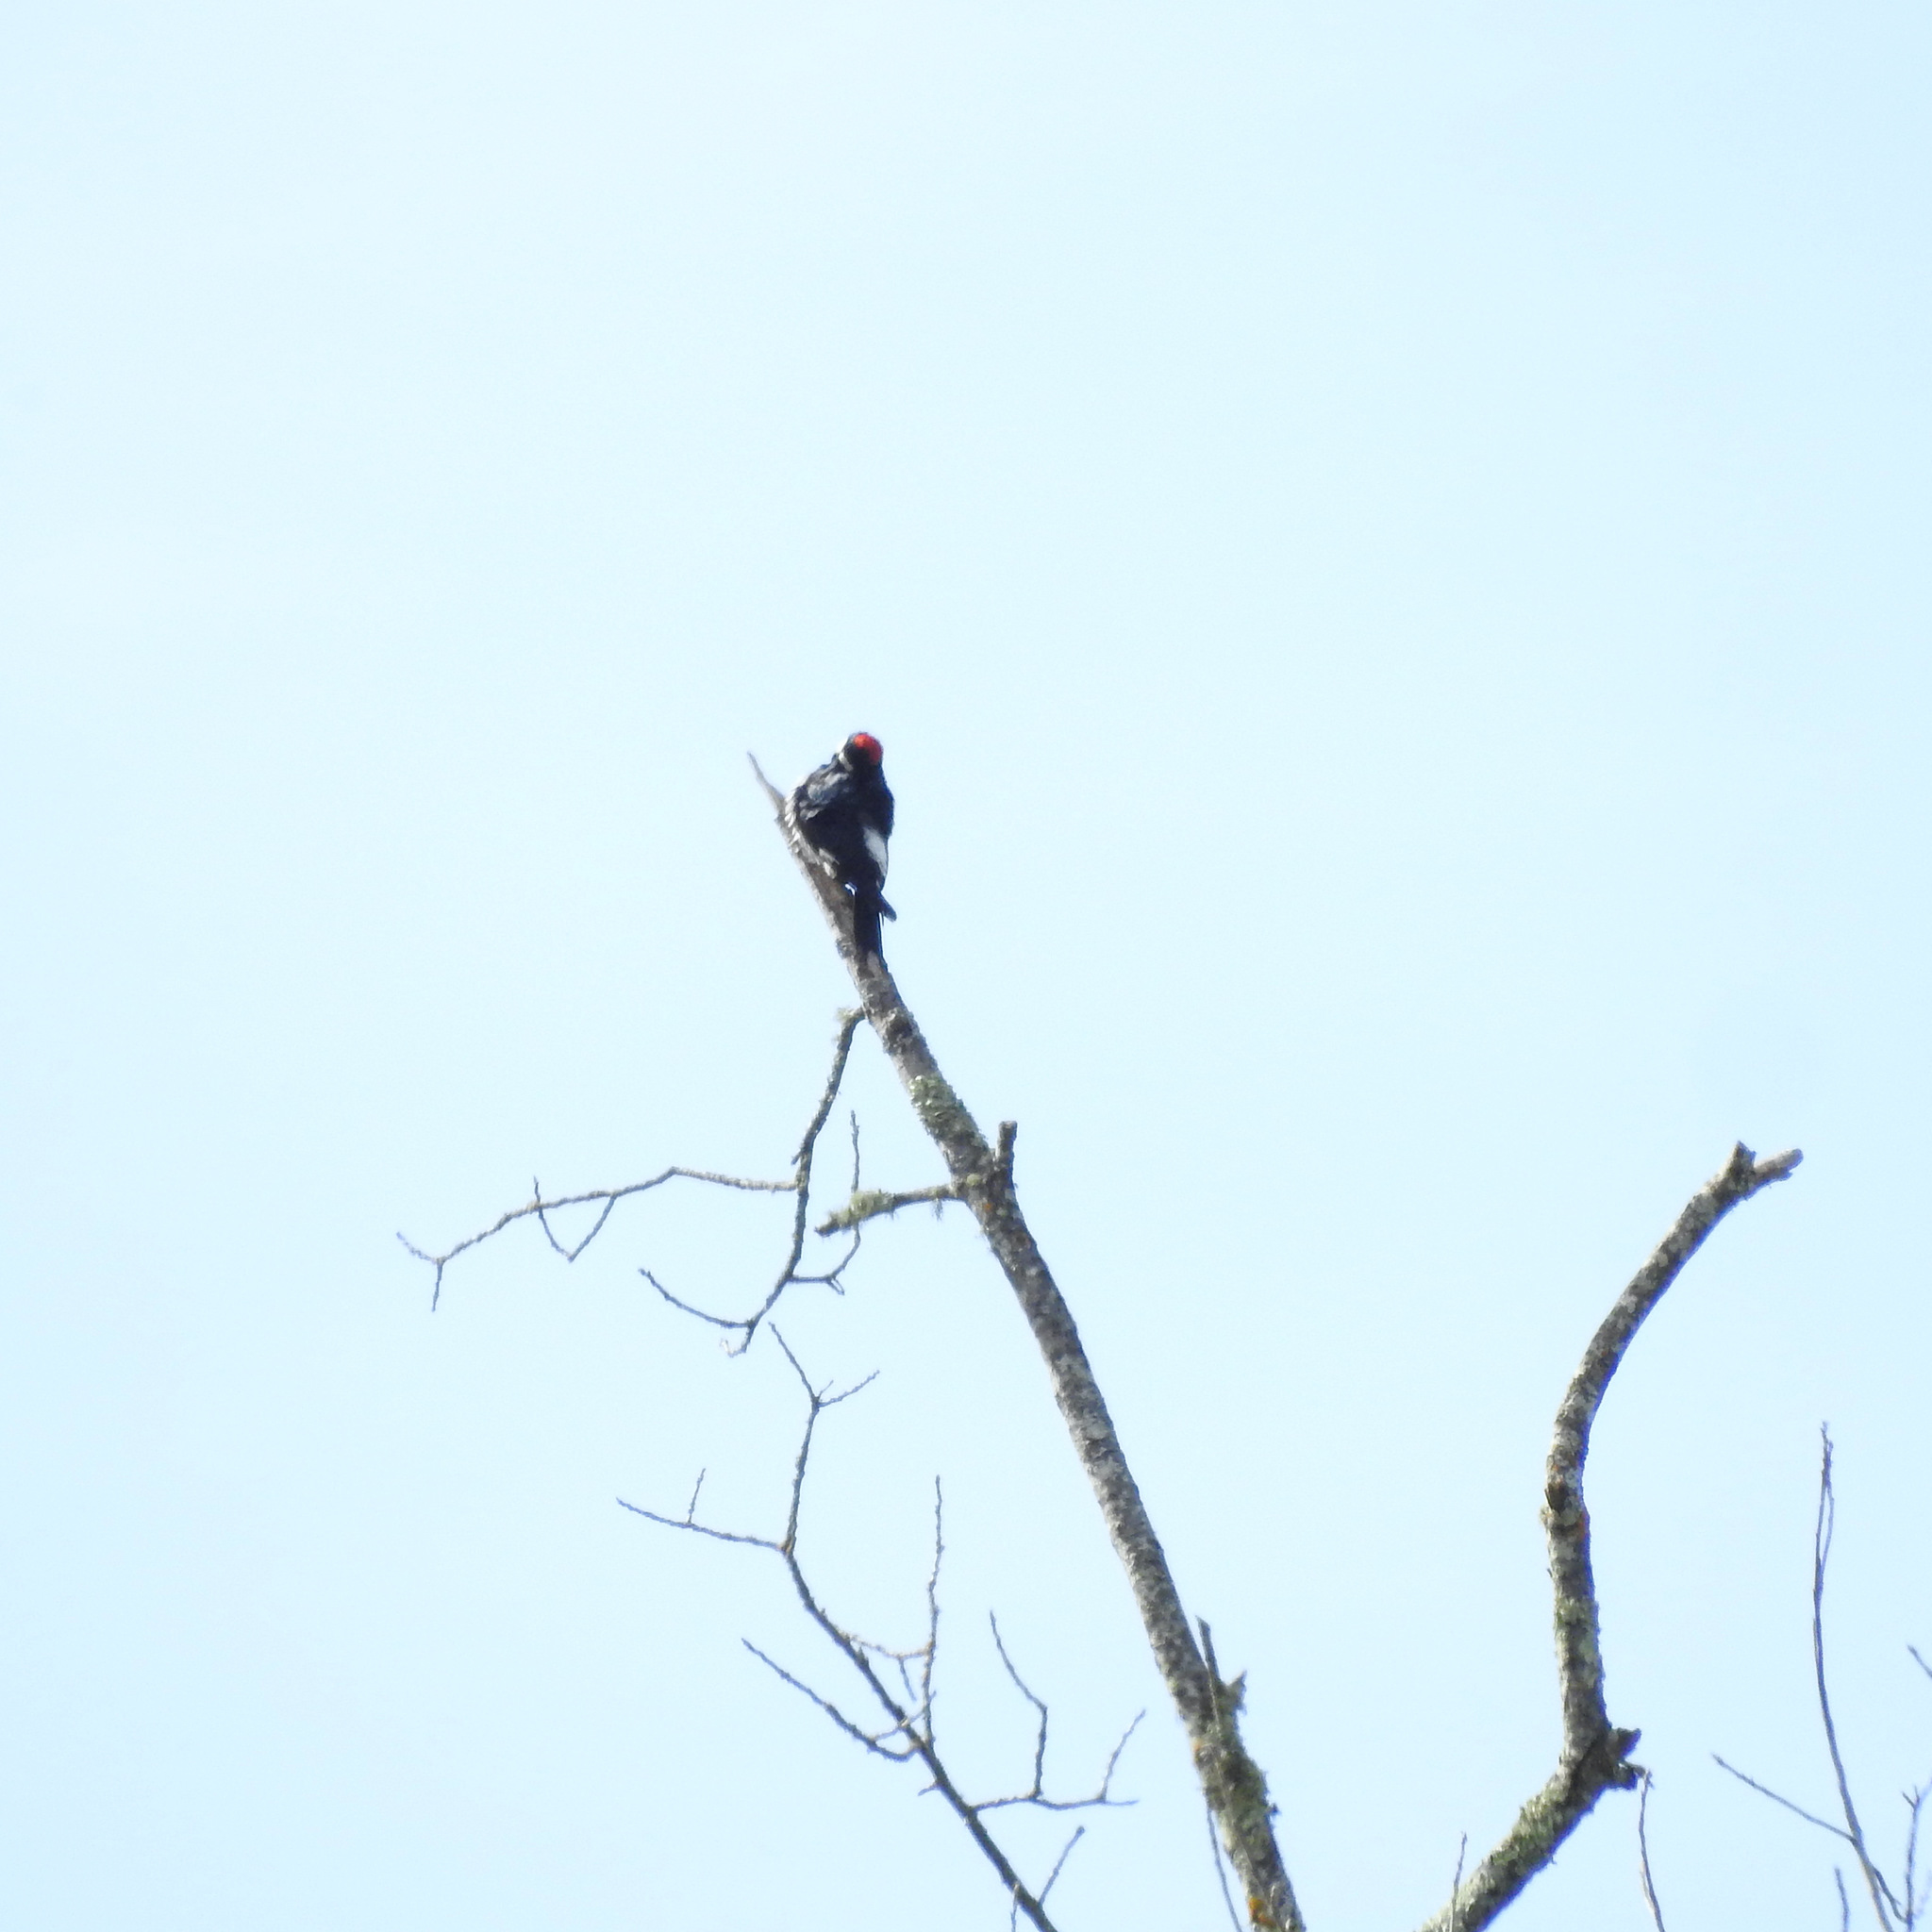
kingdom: Animalia
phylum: Chordata
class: Aves
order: Piciformes
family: Picidae
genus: Melanerpes
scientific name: Melanerpes formicivorus
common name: Acorn woodpecker
